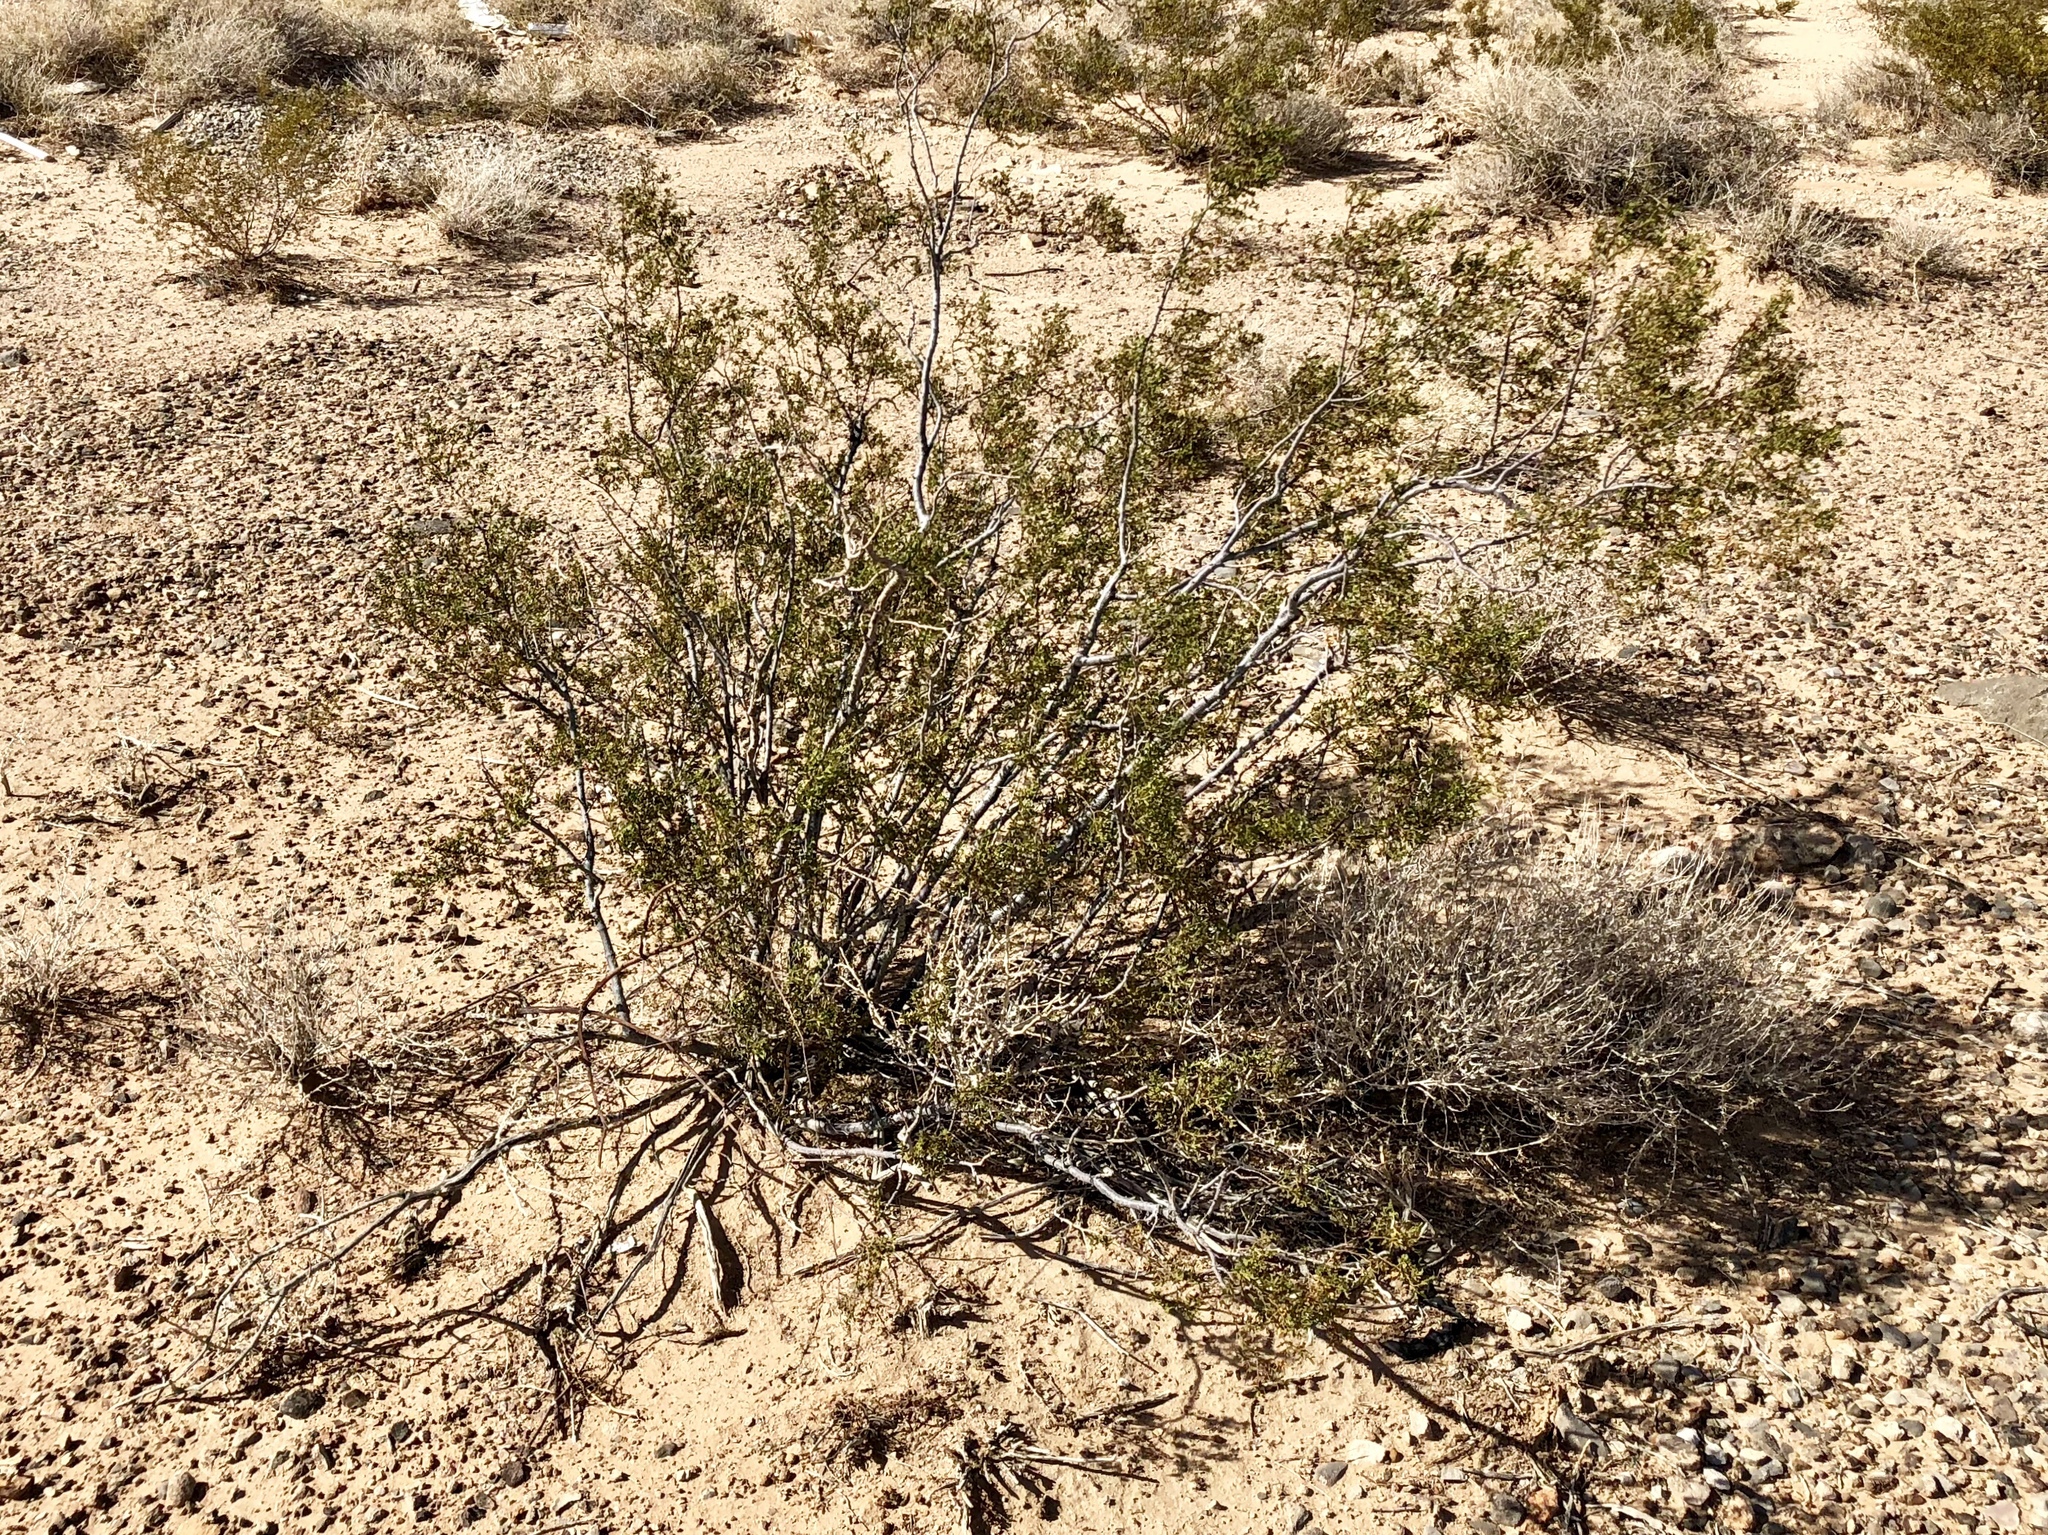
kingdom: Plantae
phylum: Tracheophyta
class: Magnoliopsida
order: Zygophyllales
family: Zygophyllaceae
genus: Larrea
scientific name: Larrea tridentata
